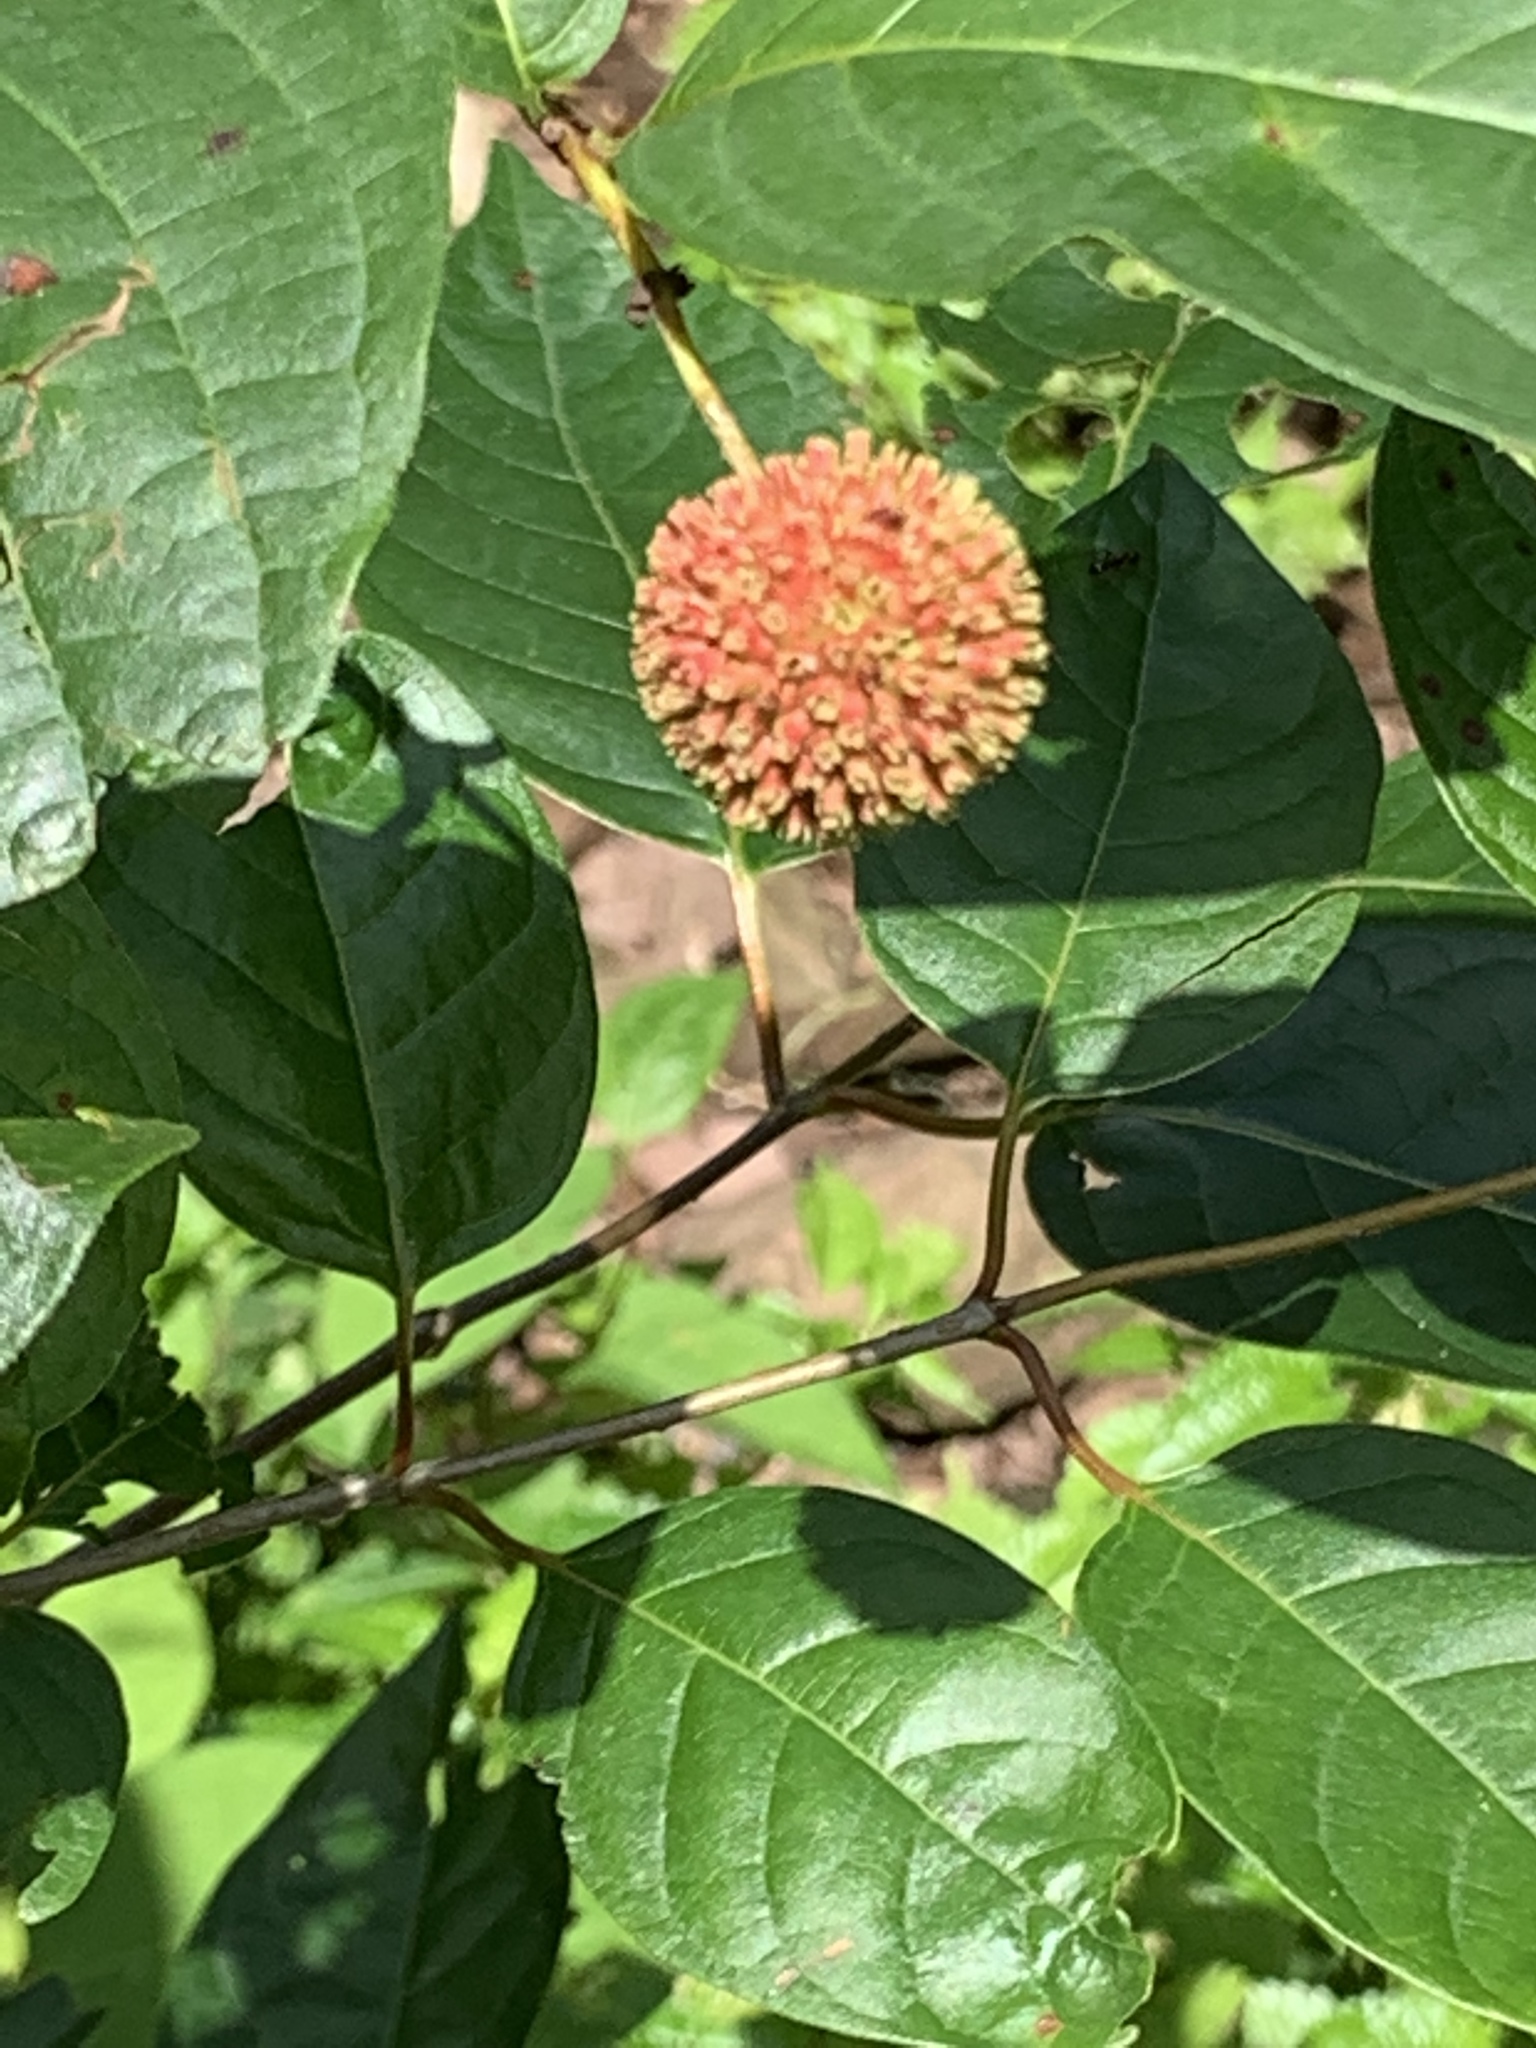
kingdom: Plantae
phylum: Tracheophyta
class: Magnoliopsida
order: Gentianales
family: Rubiaceae
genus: Cephalanthus
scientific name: Cephalanthus occidentalis
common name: Button-willow
